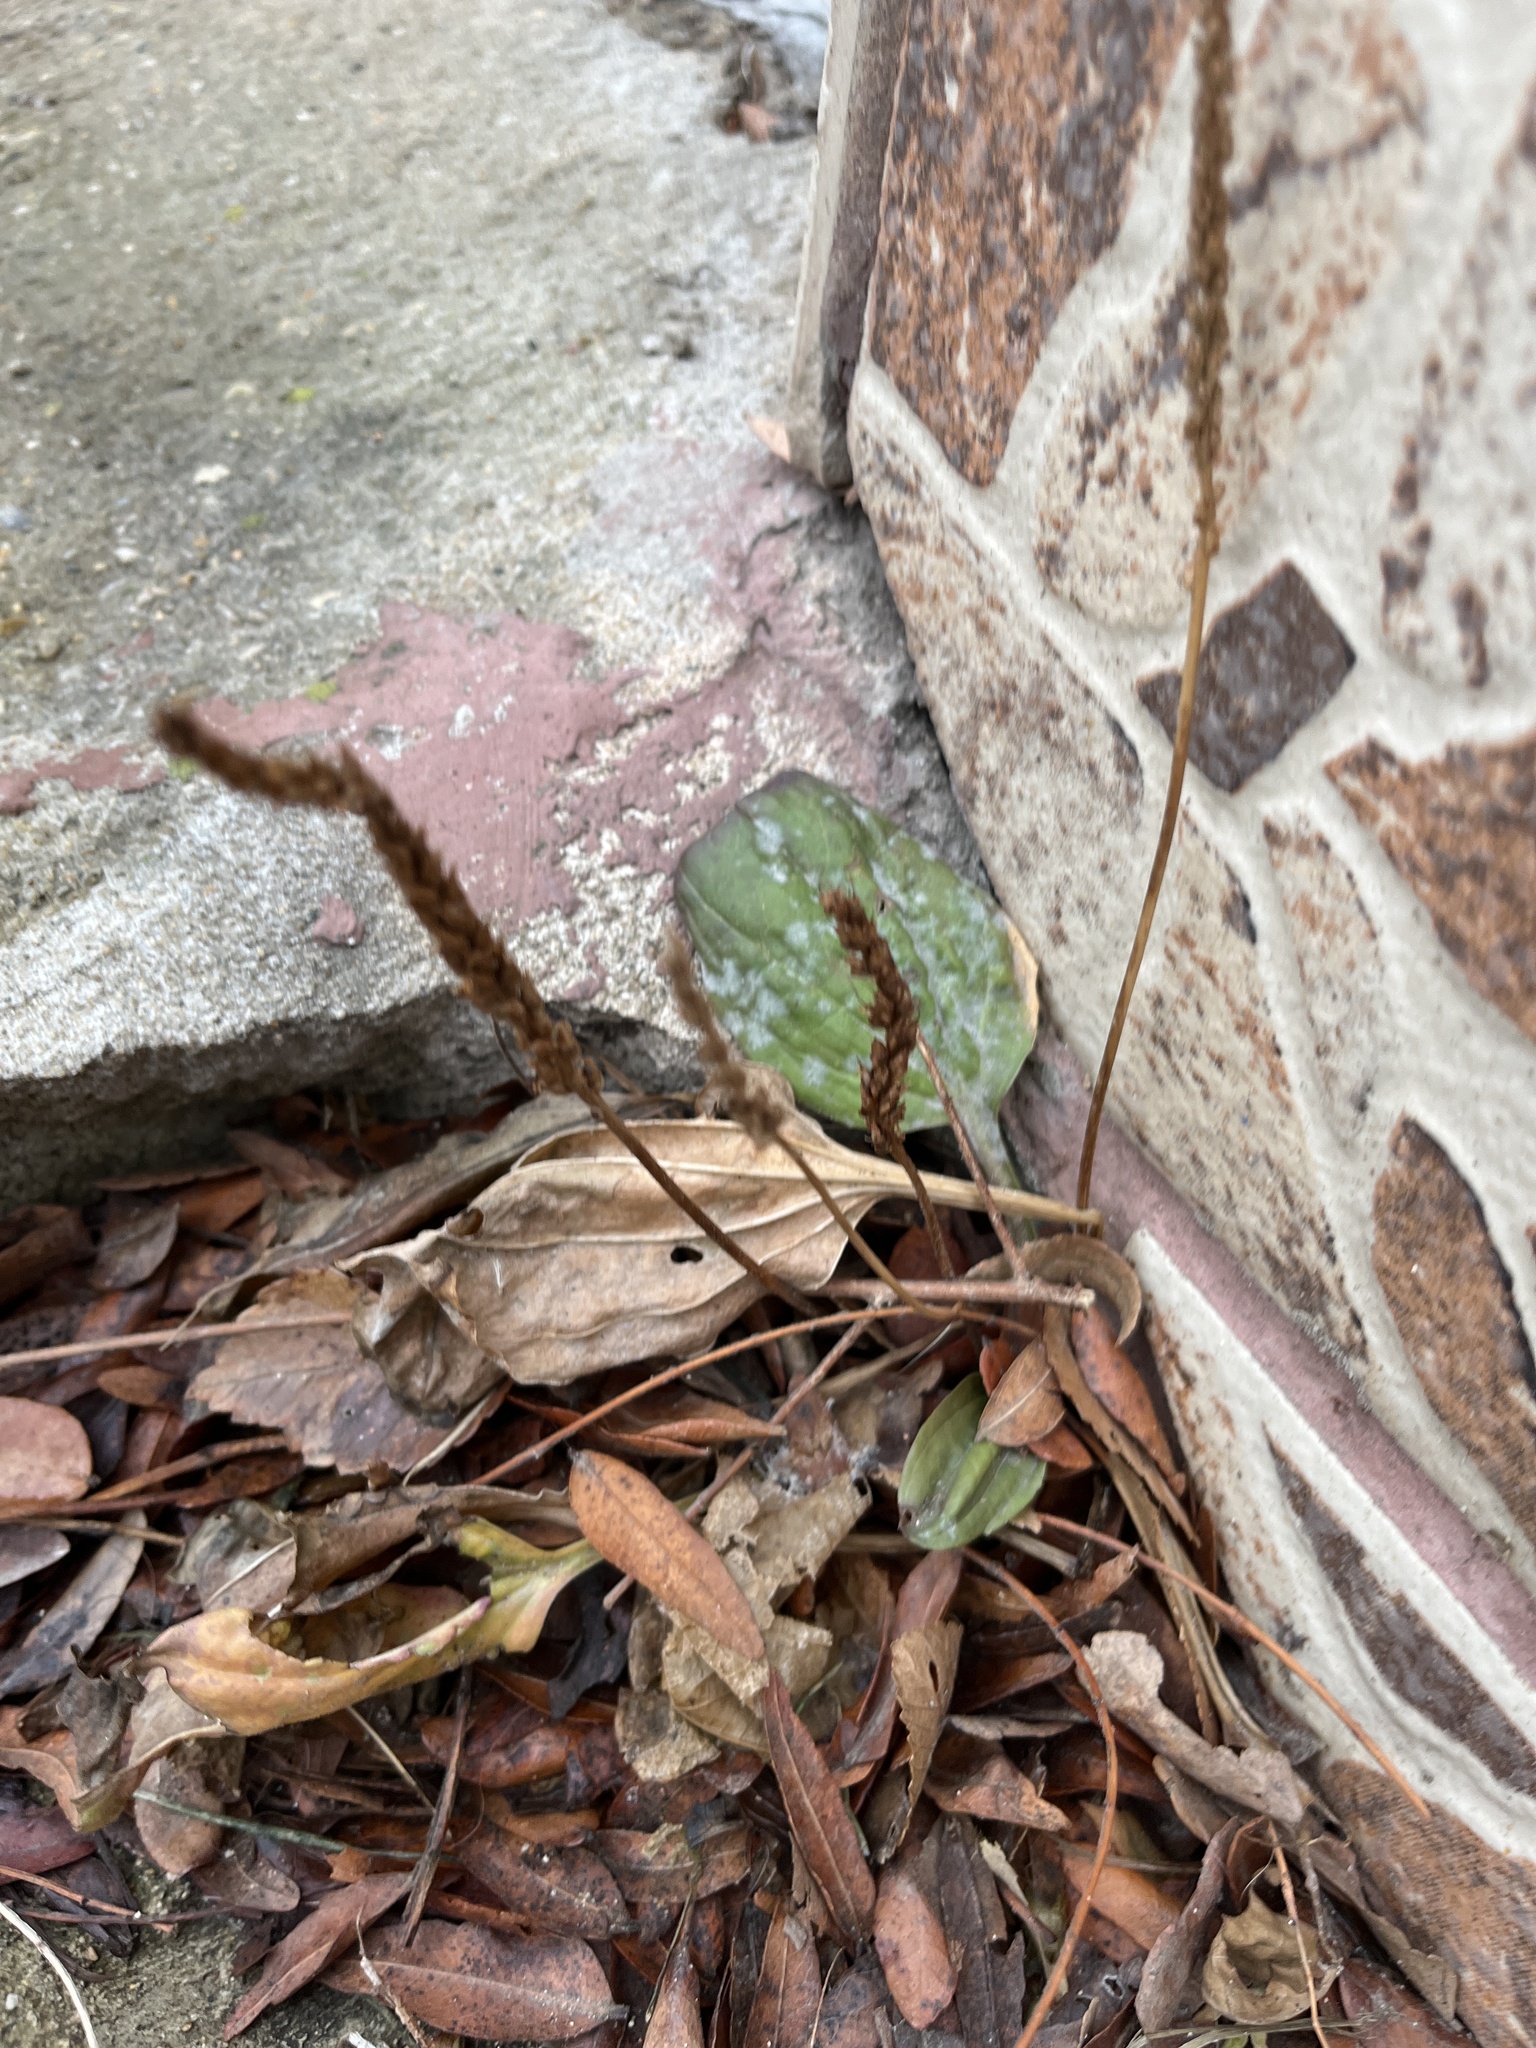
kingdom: Plantae
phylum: Tracheophyta
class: Magnoliopsida
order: Lamiales
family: Plantaginaceae
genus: Plantago
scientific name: Plantago major
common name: Common plantain
